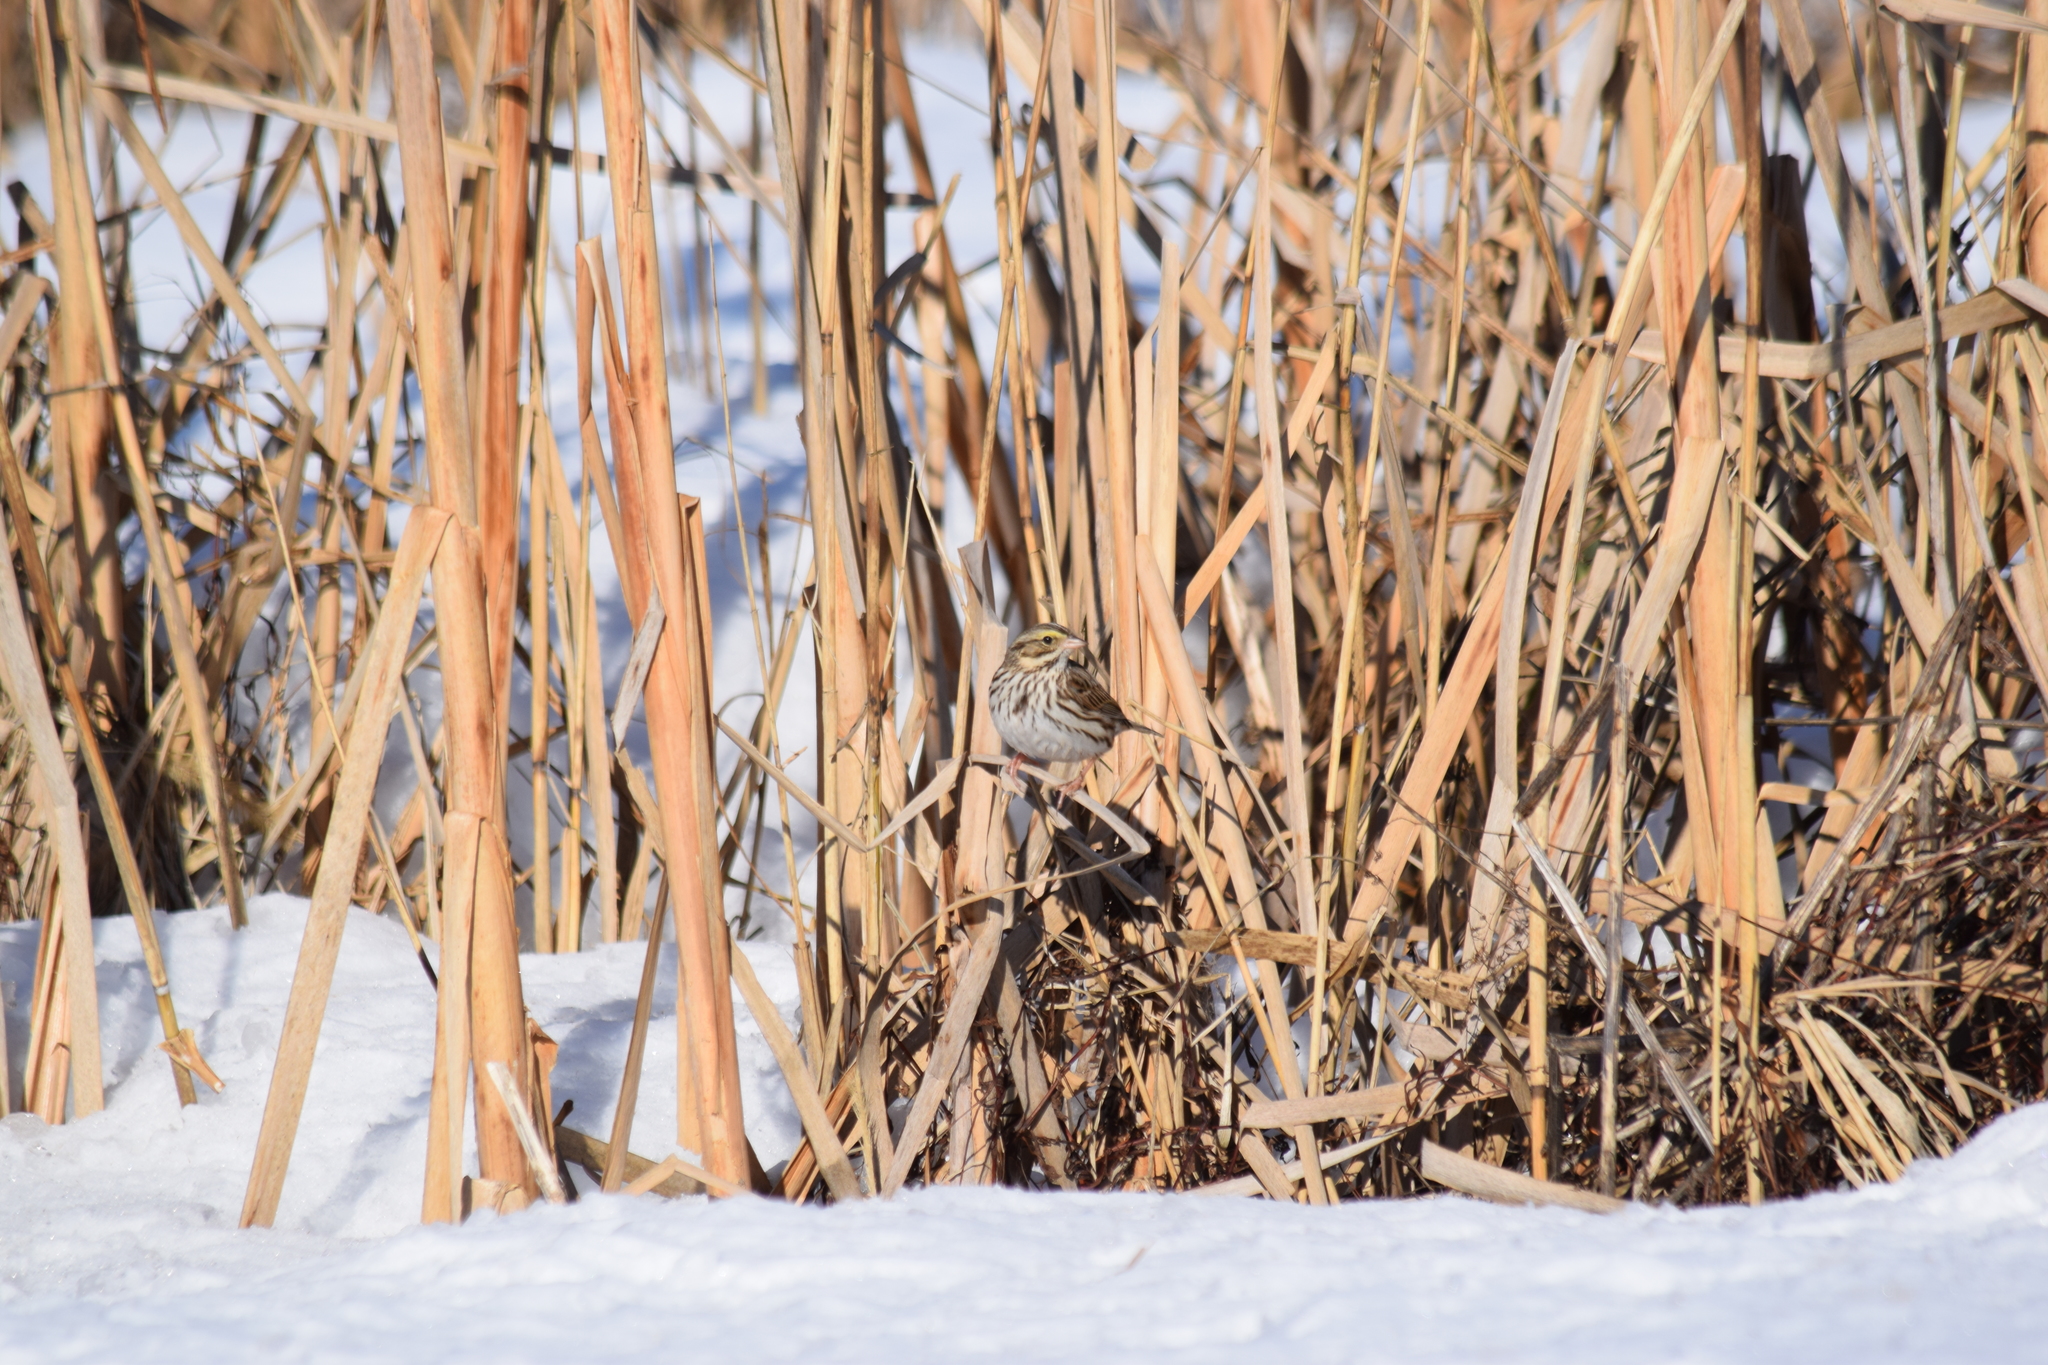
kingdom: Animalia
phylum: Chordata
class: Aves
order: Passeriformes
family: Passerellidae
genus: Passerculus
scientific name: Passerculus sandwichensis
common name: Savannah sparrow
